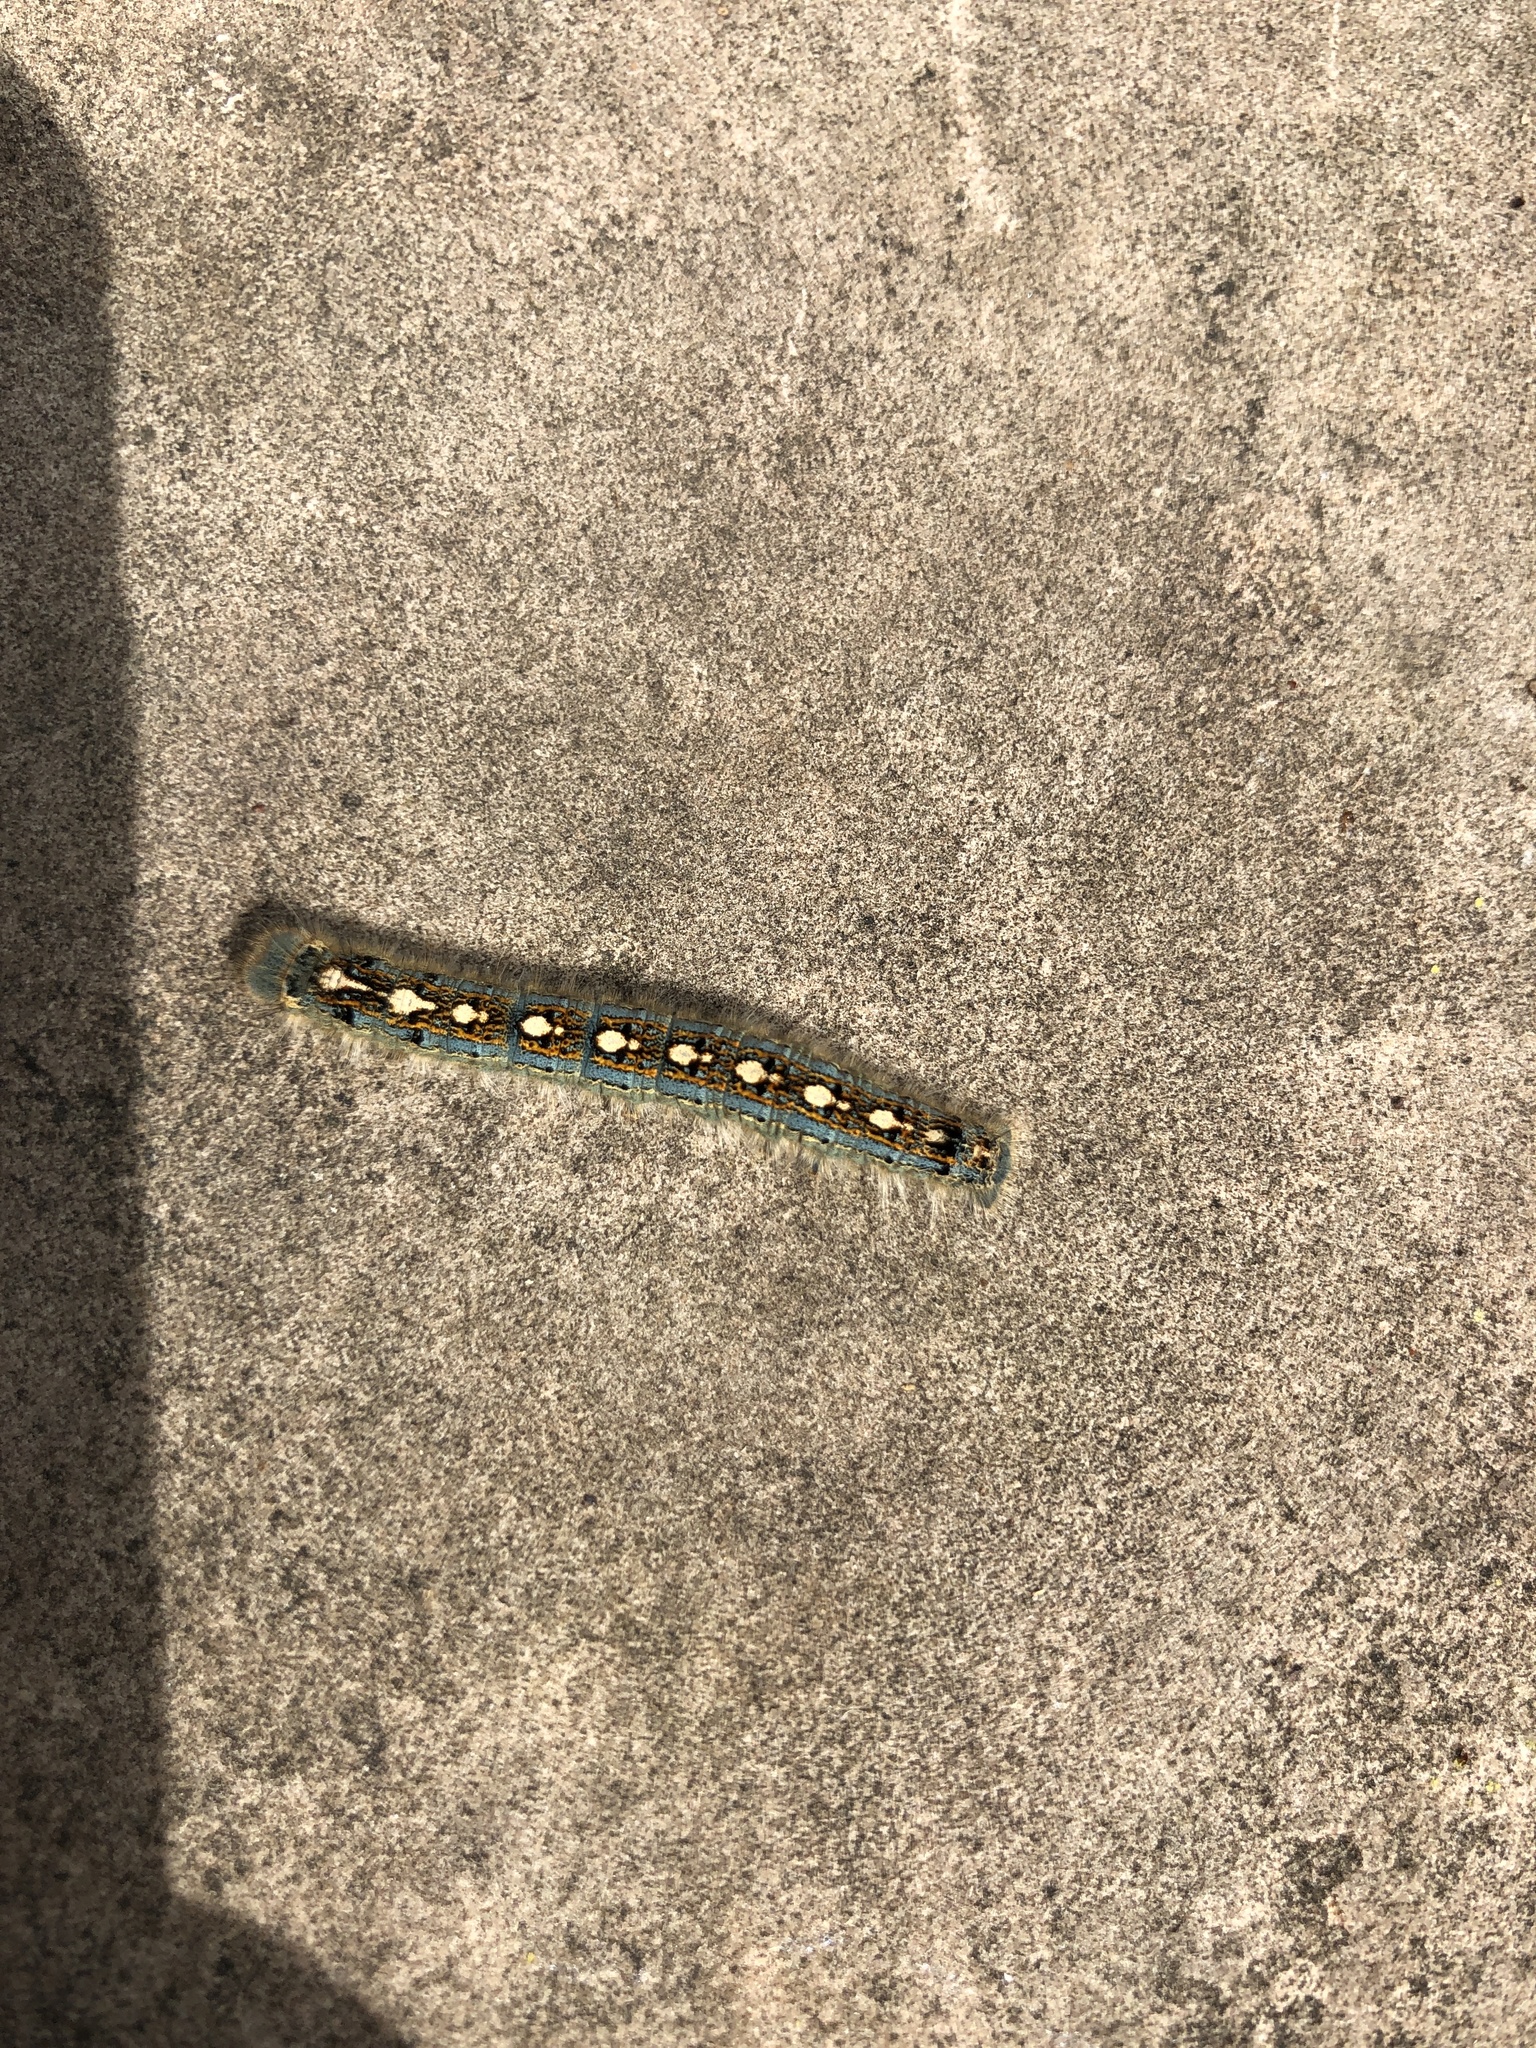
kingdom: Animalia
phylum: Arthropoda
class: Insecta
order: Lepidoptera
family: Lasiocampidae
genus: Malacosoma
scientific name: Malacosoma disstria
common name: Forest tent caterpillar
